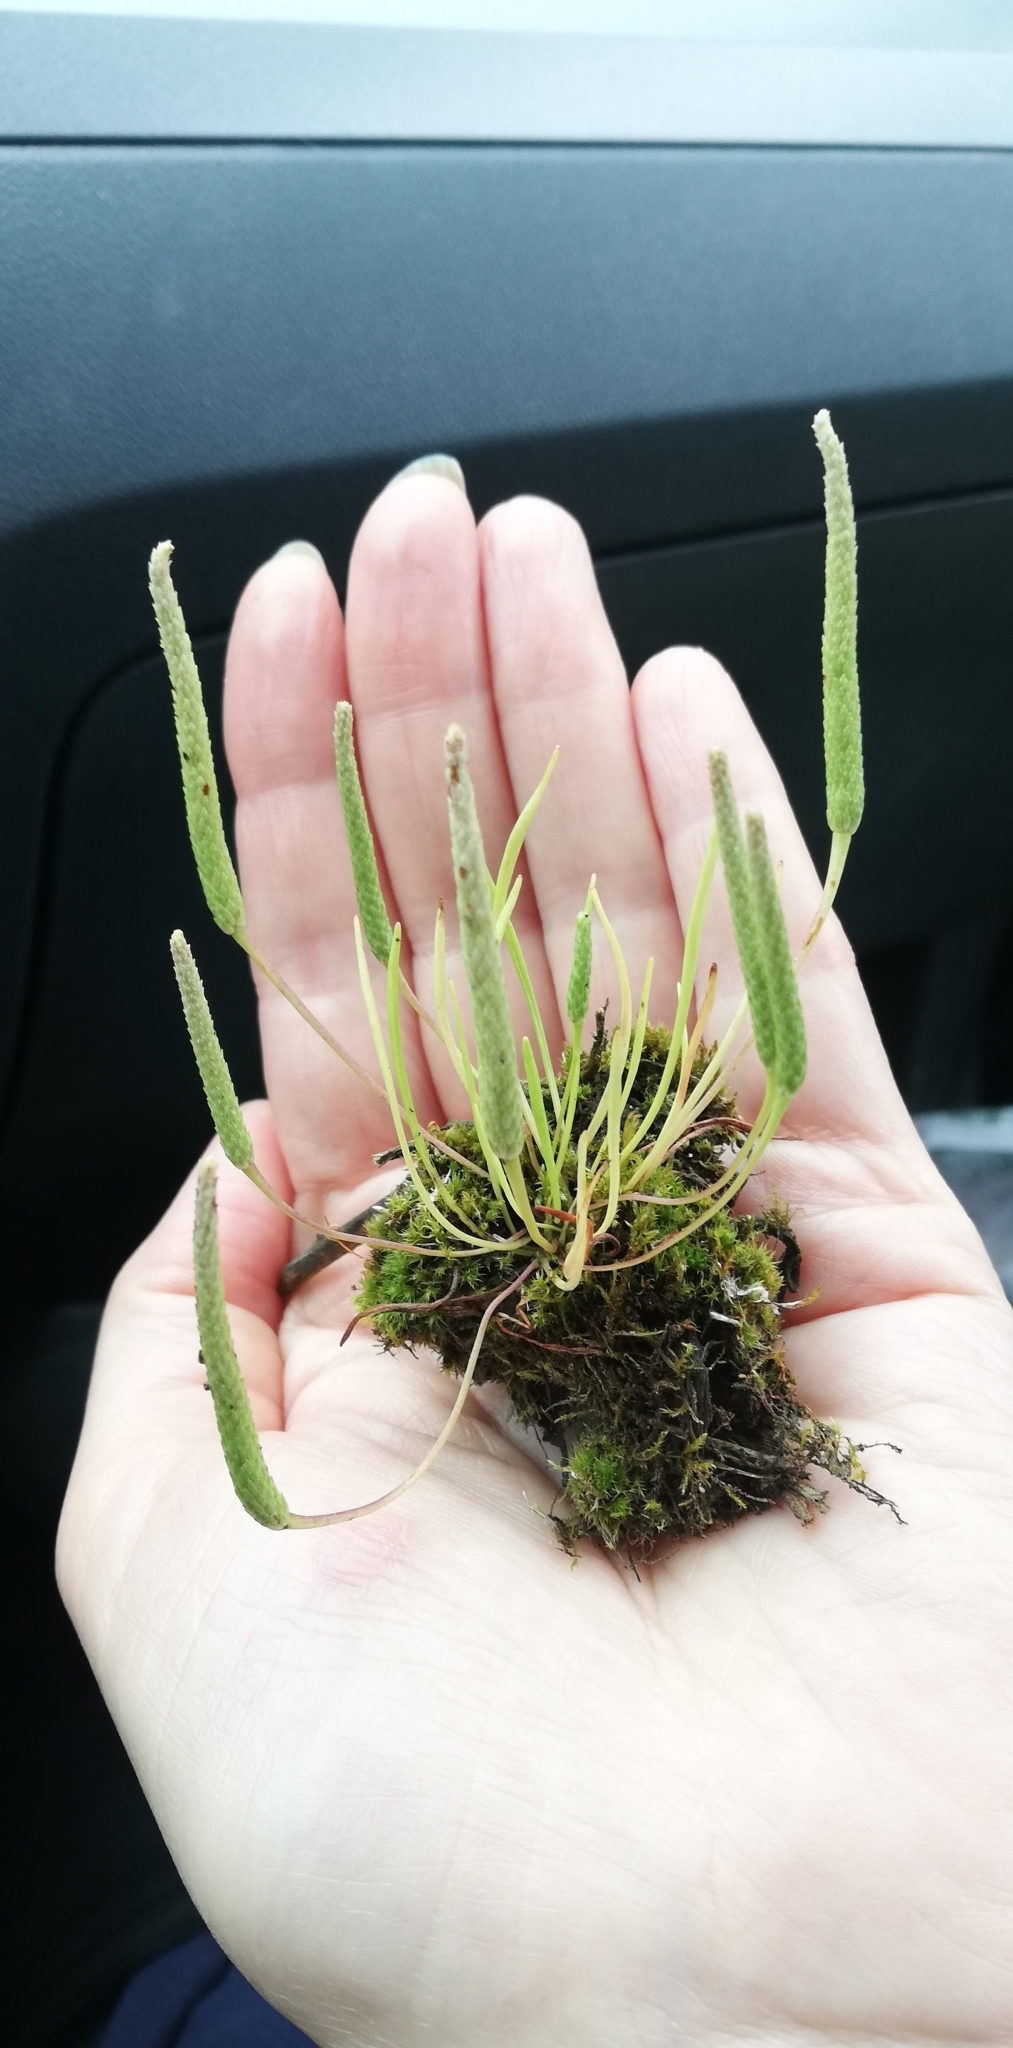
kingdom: Plantae
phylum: Tracheophyta
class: Magnoliopsida
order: Ranunculales
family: Ranunculaceae
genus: Myosurus
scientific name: Myosurus minimus
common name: Mousetail
